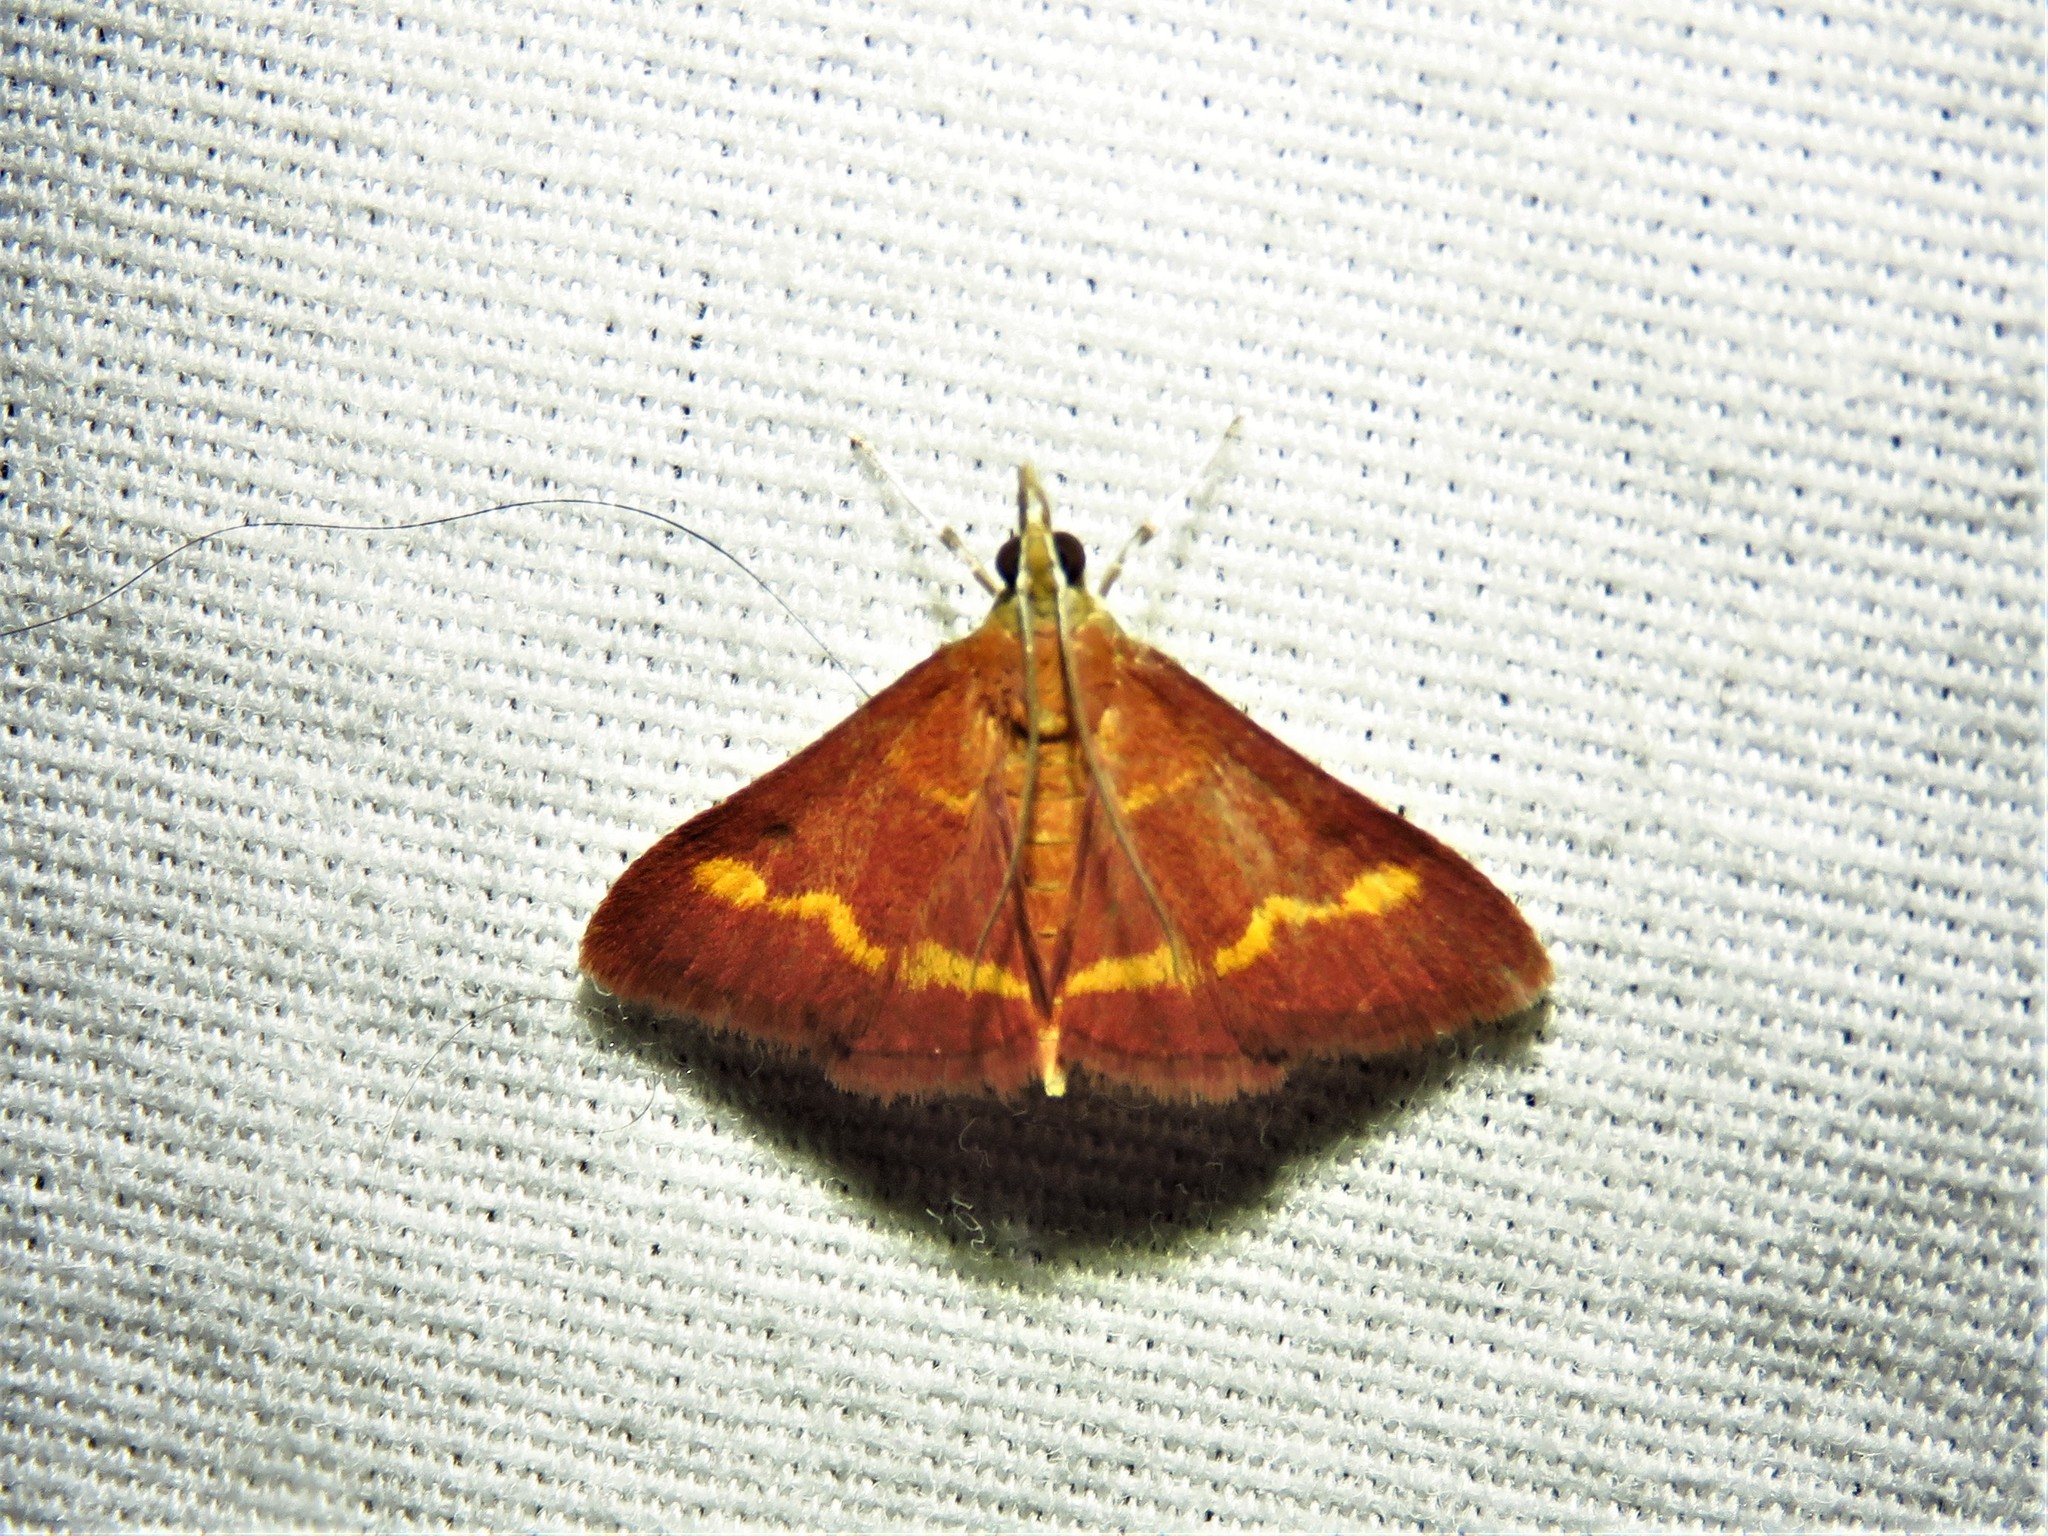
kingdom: Animalia
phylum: Arthropoda
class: Insecta
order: Lepidoptera
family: Crambidae
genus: Pyrausta
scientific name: Pyrausta pseuderosnealis
